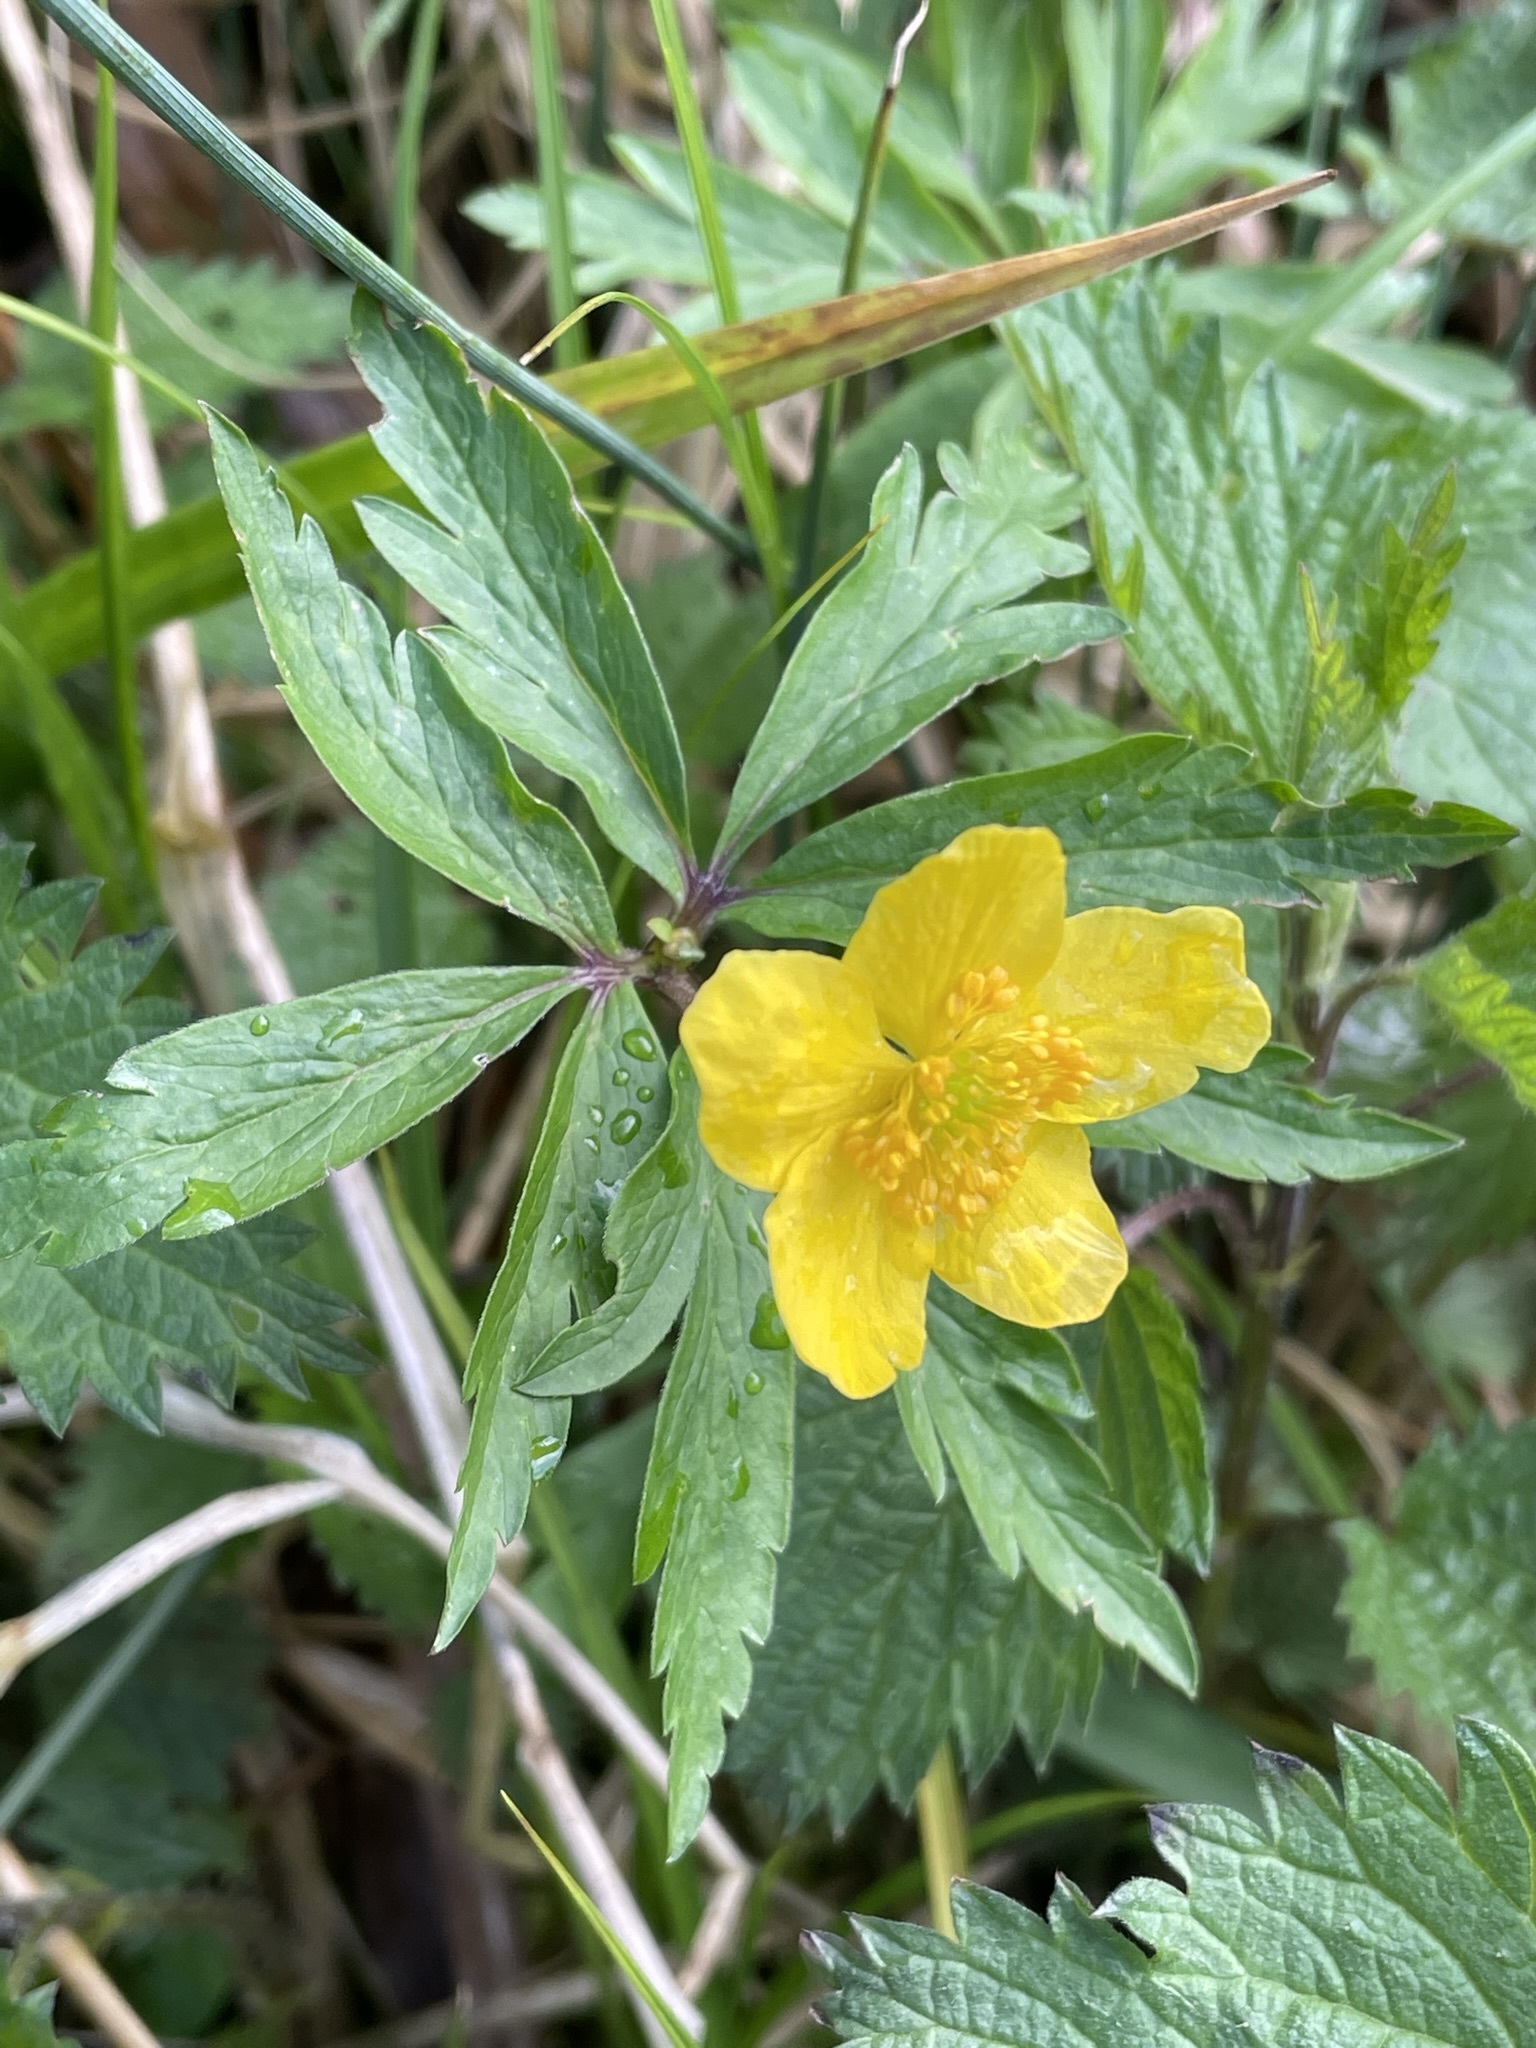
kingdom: Plantae
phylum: Tracheophyta
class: Magnoliopsida
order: Ranunculales
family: Ranunculaceae
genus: Anemone
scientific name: Anemone ranunculoides
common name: Yellow anemone
